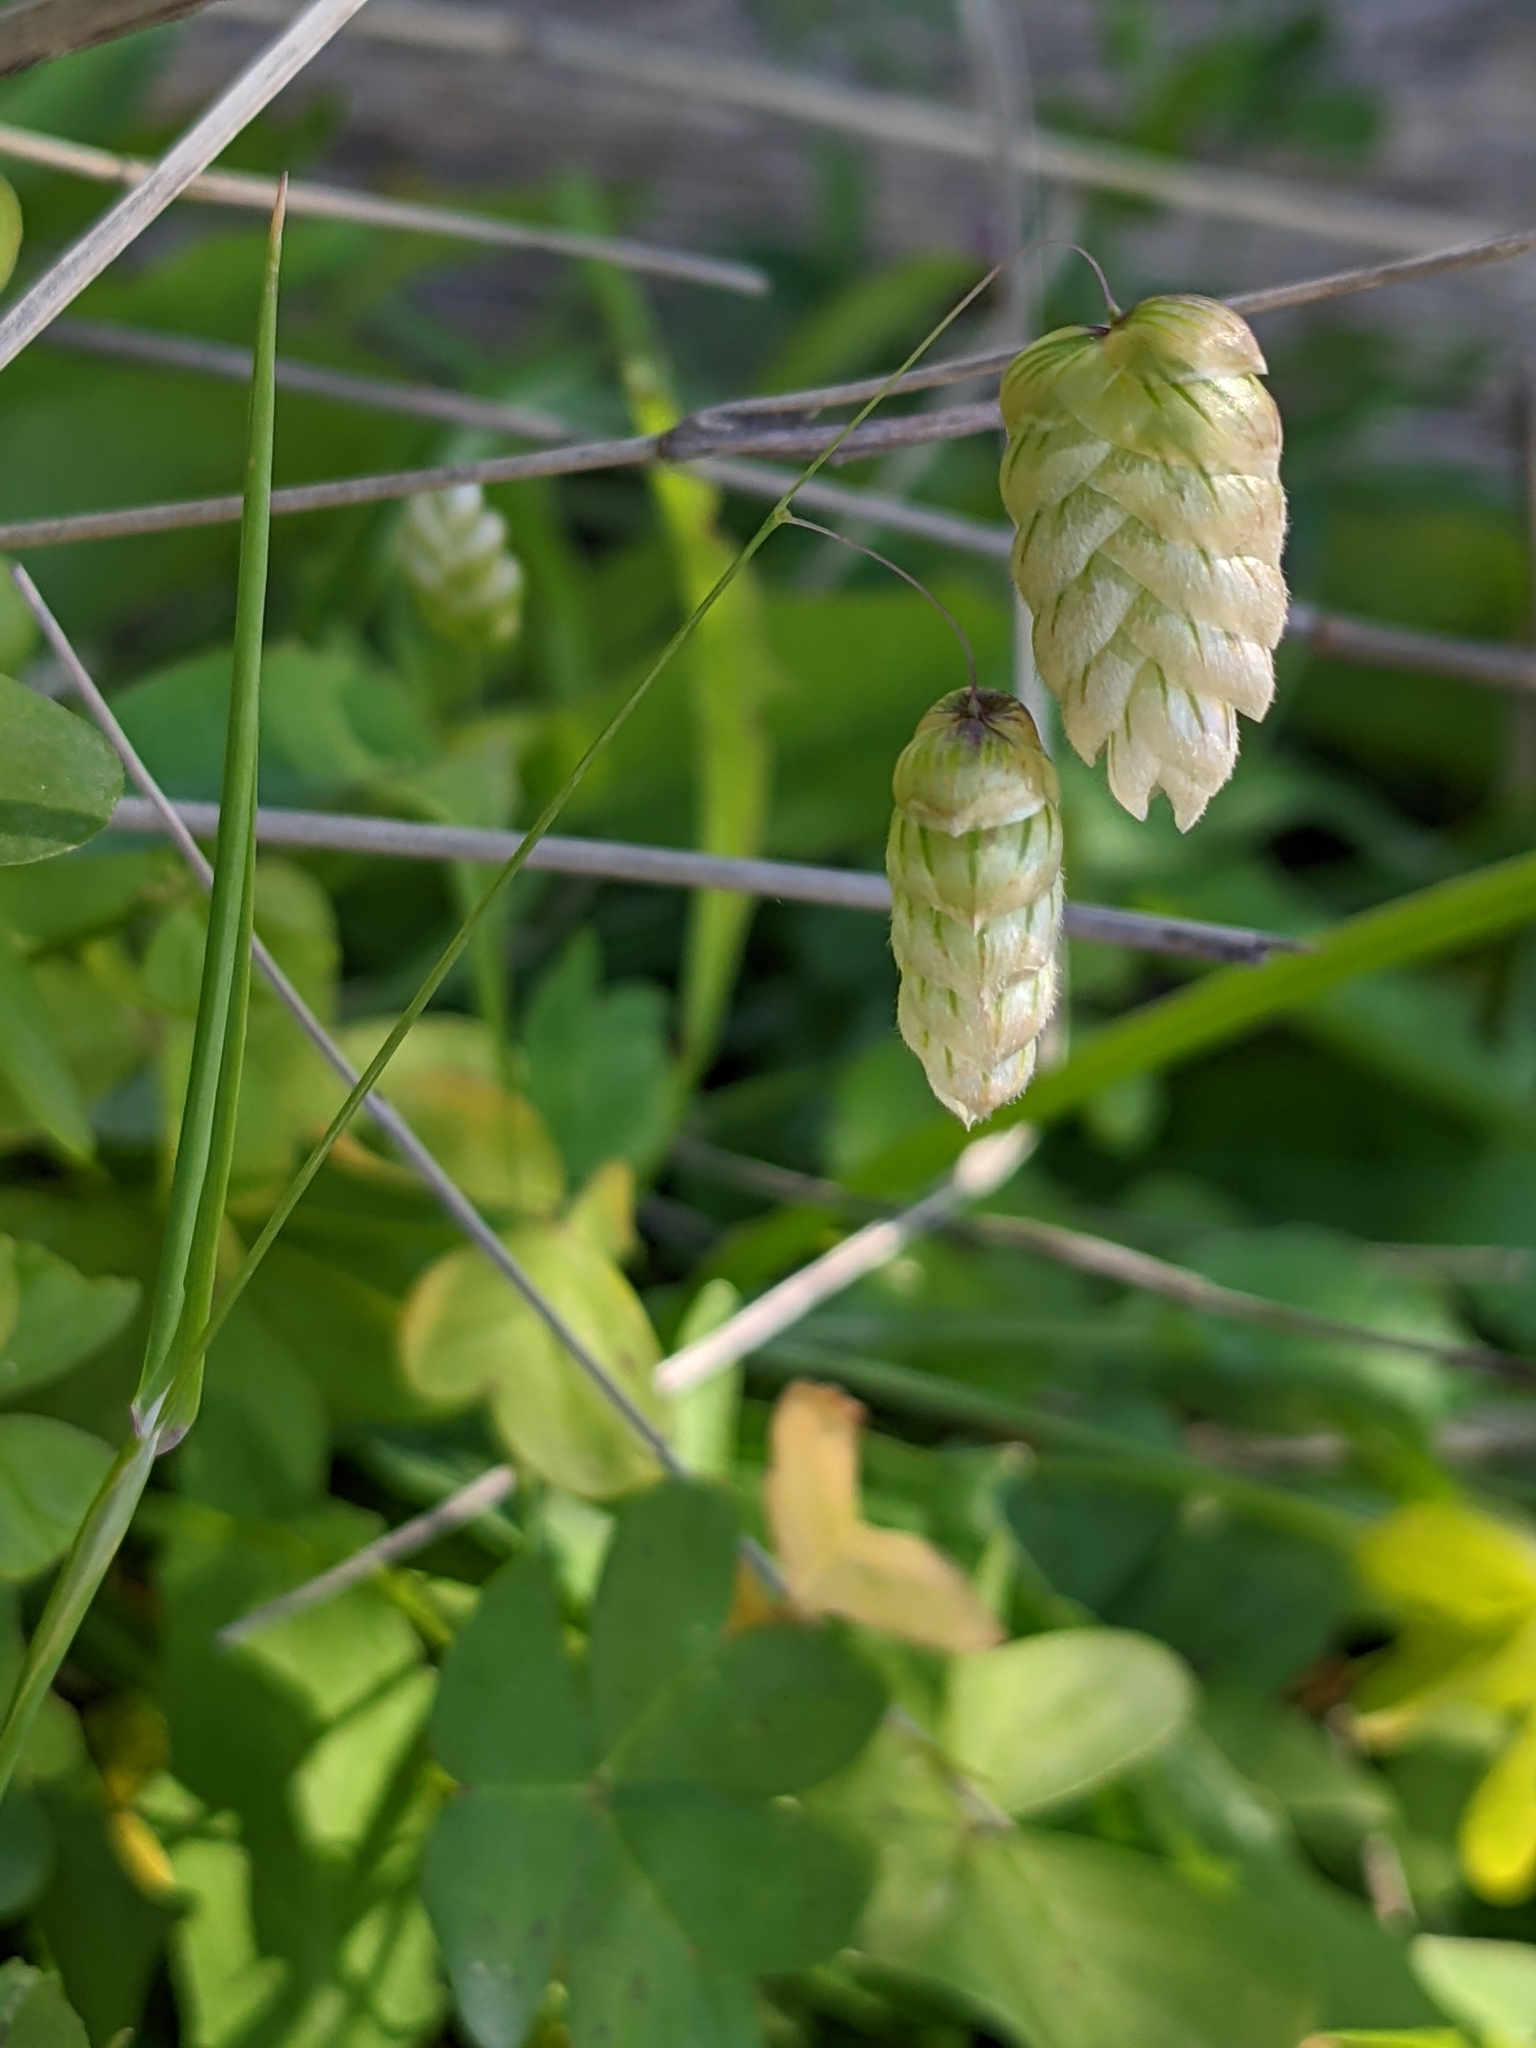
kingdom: Plantae
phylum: Tracheophyta
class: Liliopsida
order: Poales
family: Poaceae
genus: Briza
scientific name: Briza maxima
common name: Big quakinggrass
